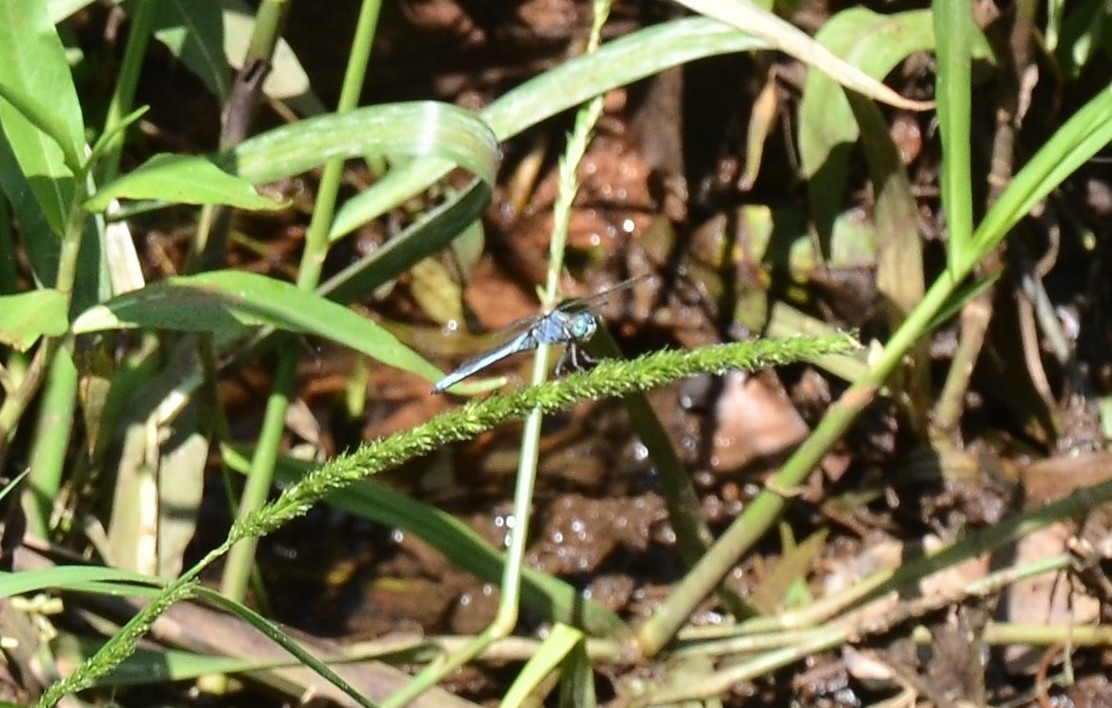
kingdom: Animalia
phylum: Arthropoda
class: Insecta
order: Odonata
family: Libellulidae
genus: Orthetrum
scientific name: Orthetrum luzonicum
